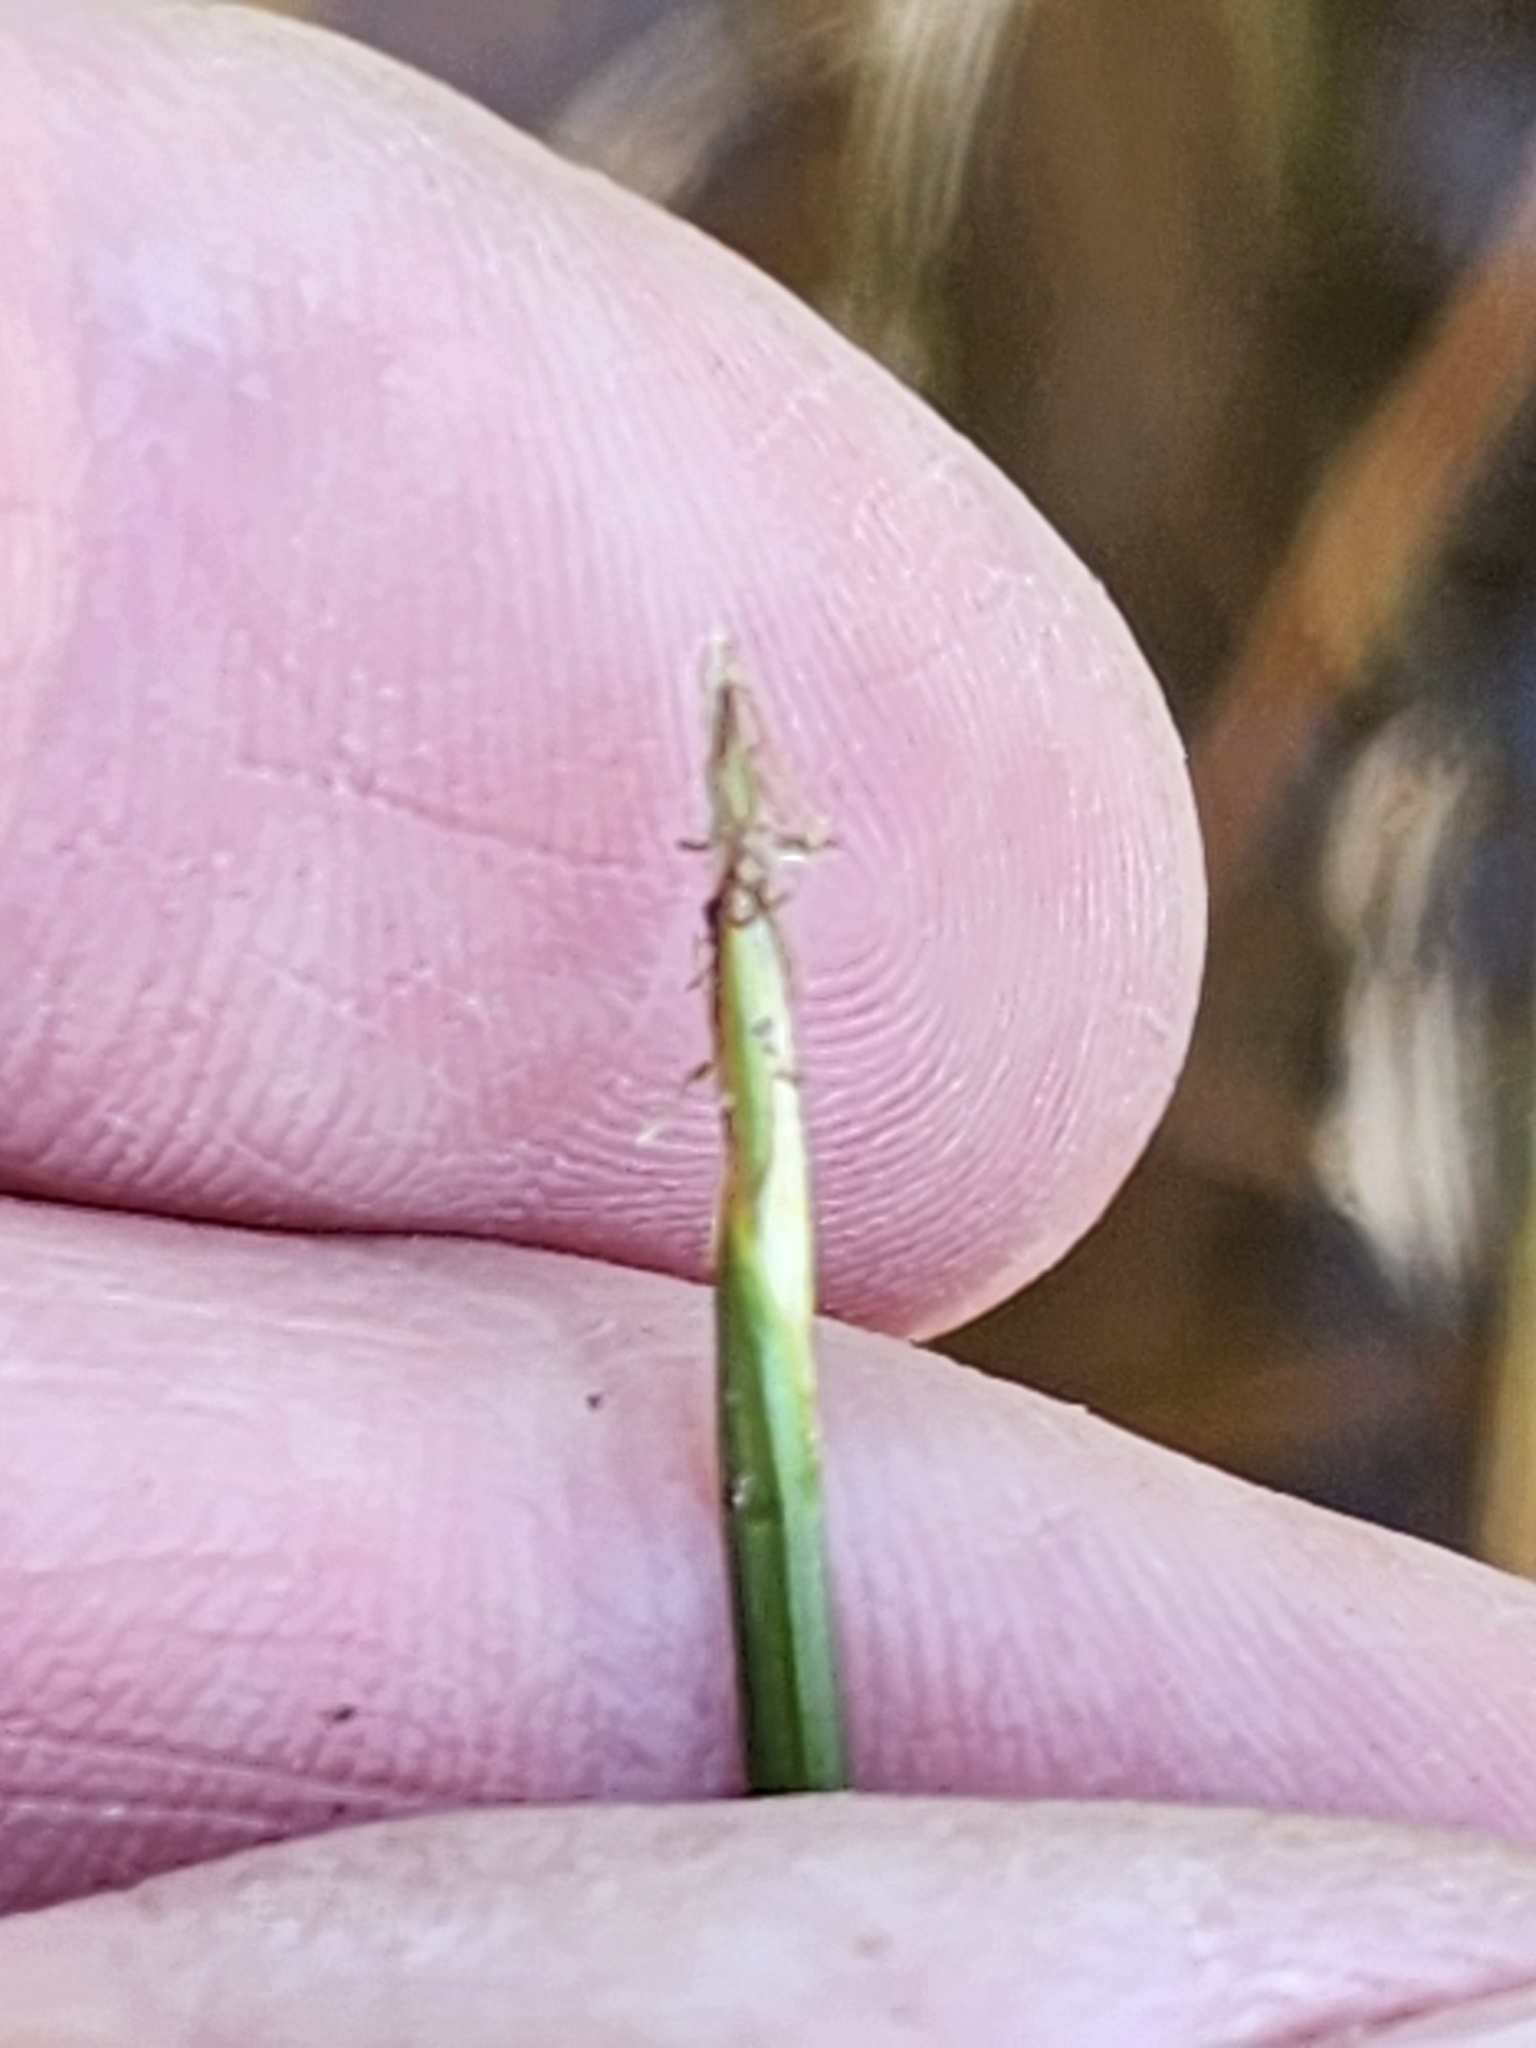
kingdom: Plantae
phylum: Tracheophyta
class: Liliopsida
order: Poales
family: Cyperaceae
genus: Eleocharis
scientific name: Eleocharis robbinsii
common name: Robbins' spikerush
